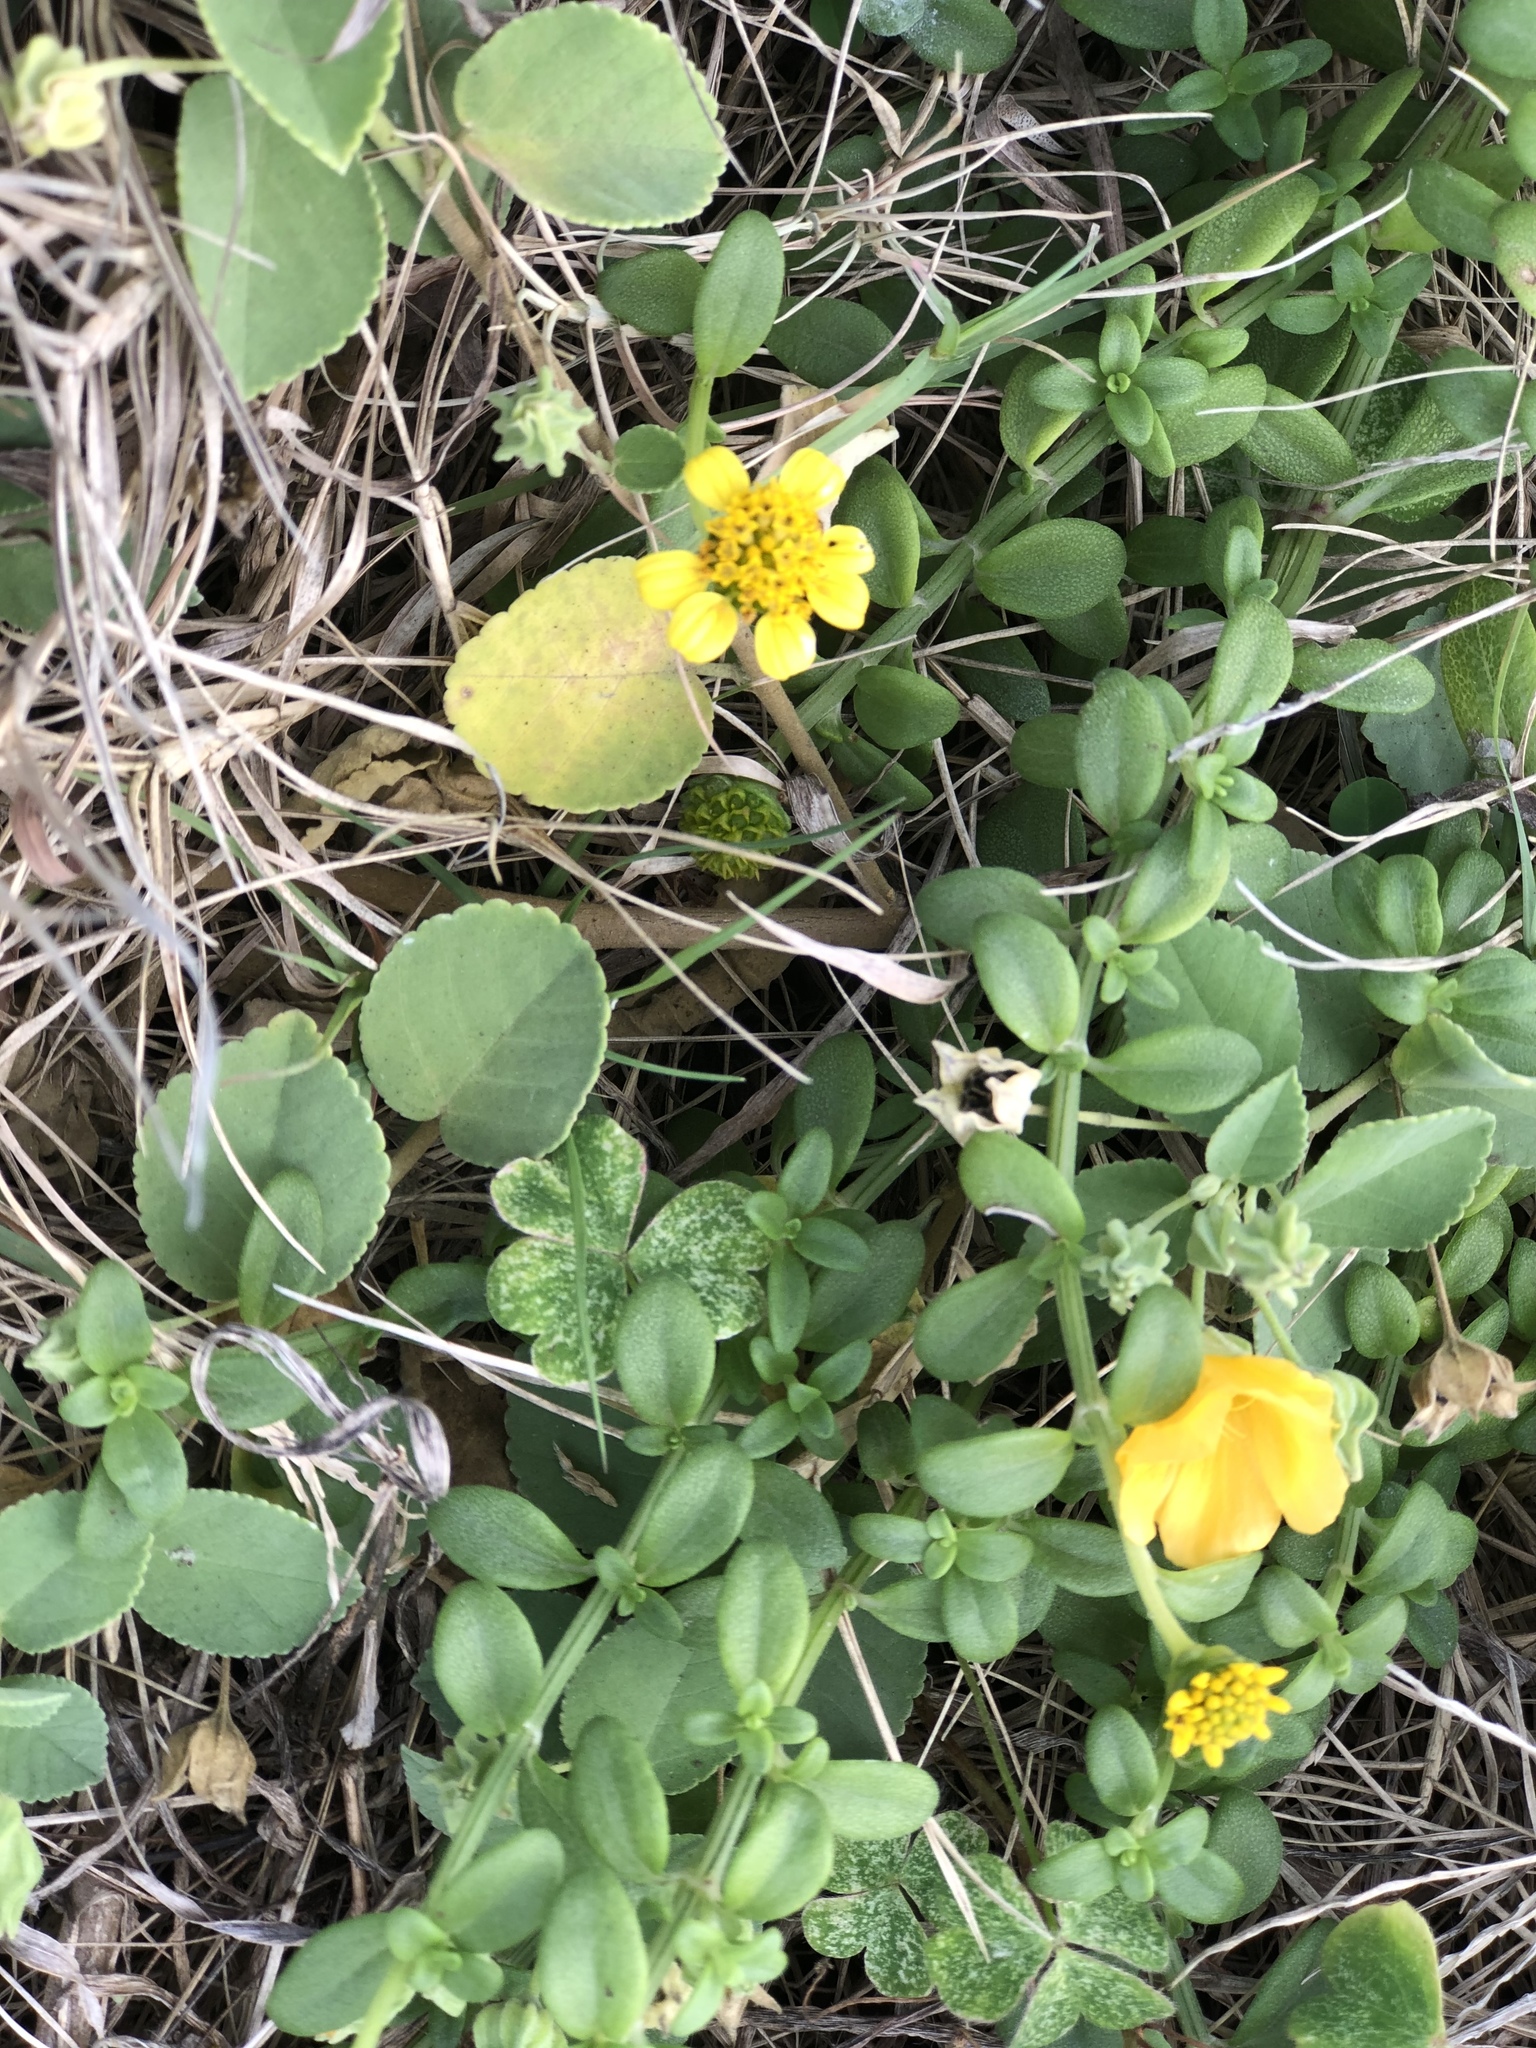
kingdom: Plantae
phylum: Tracheophyta
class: Magnoliopsida
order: Asterales
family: Asteraceae
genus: Lipochaeta
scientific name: Lipochaeta integrifolia
